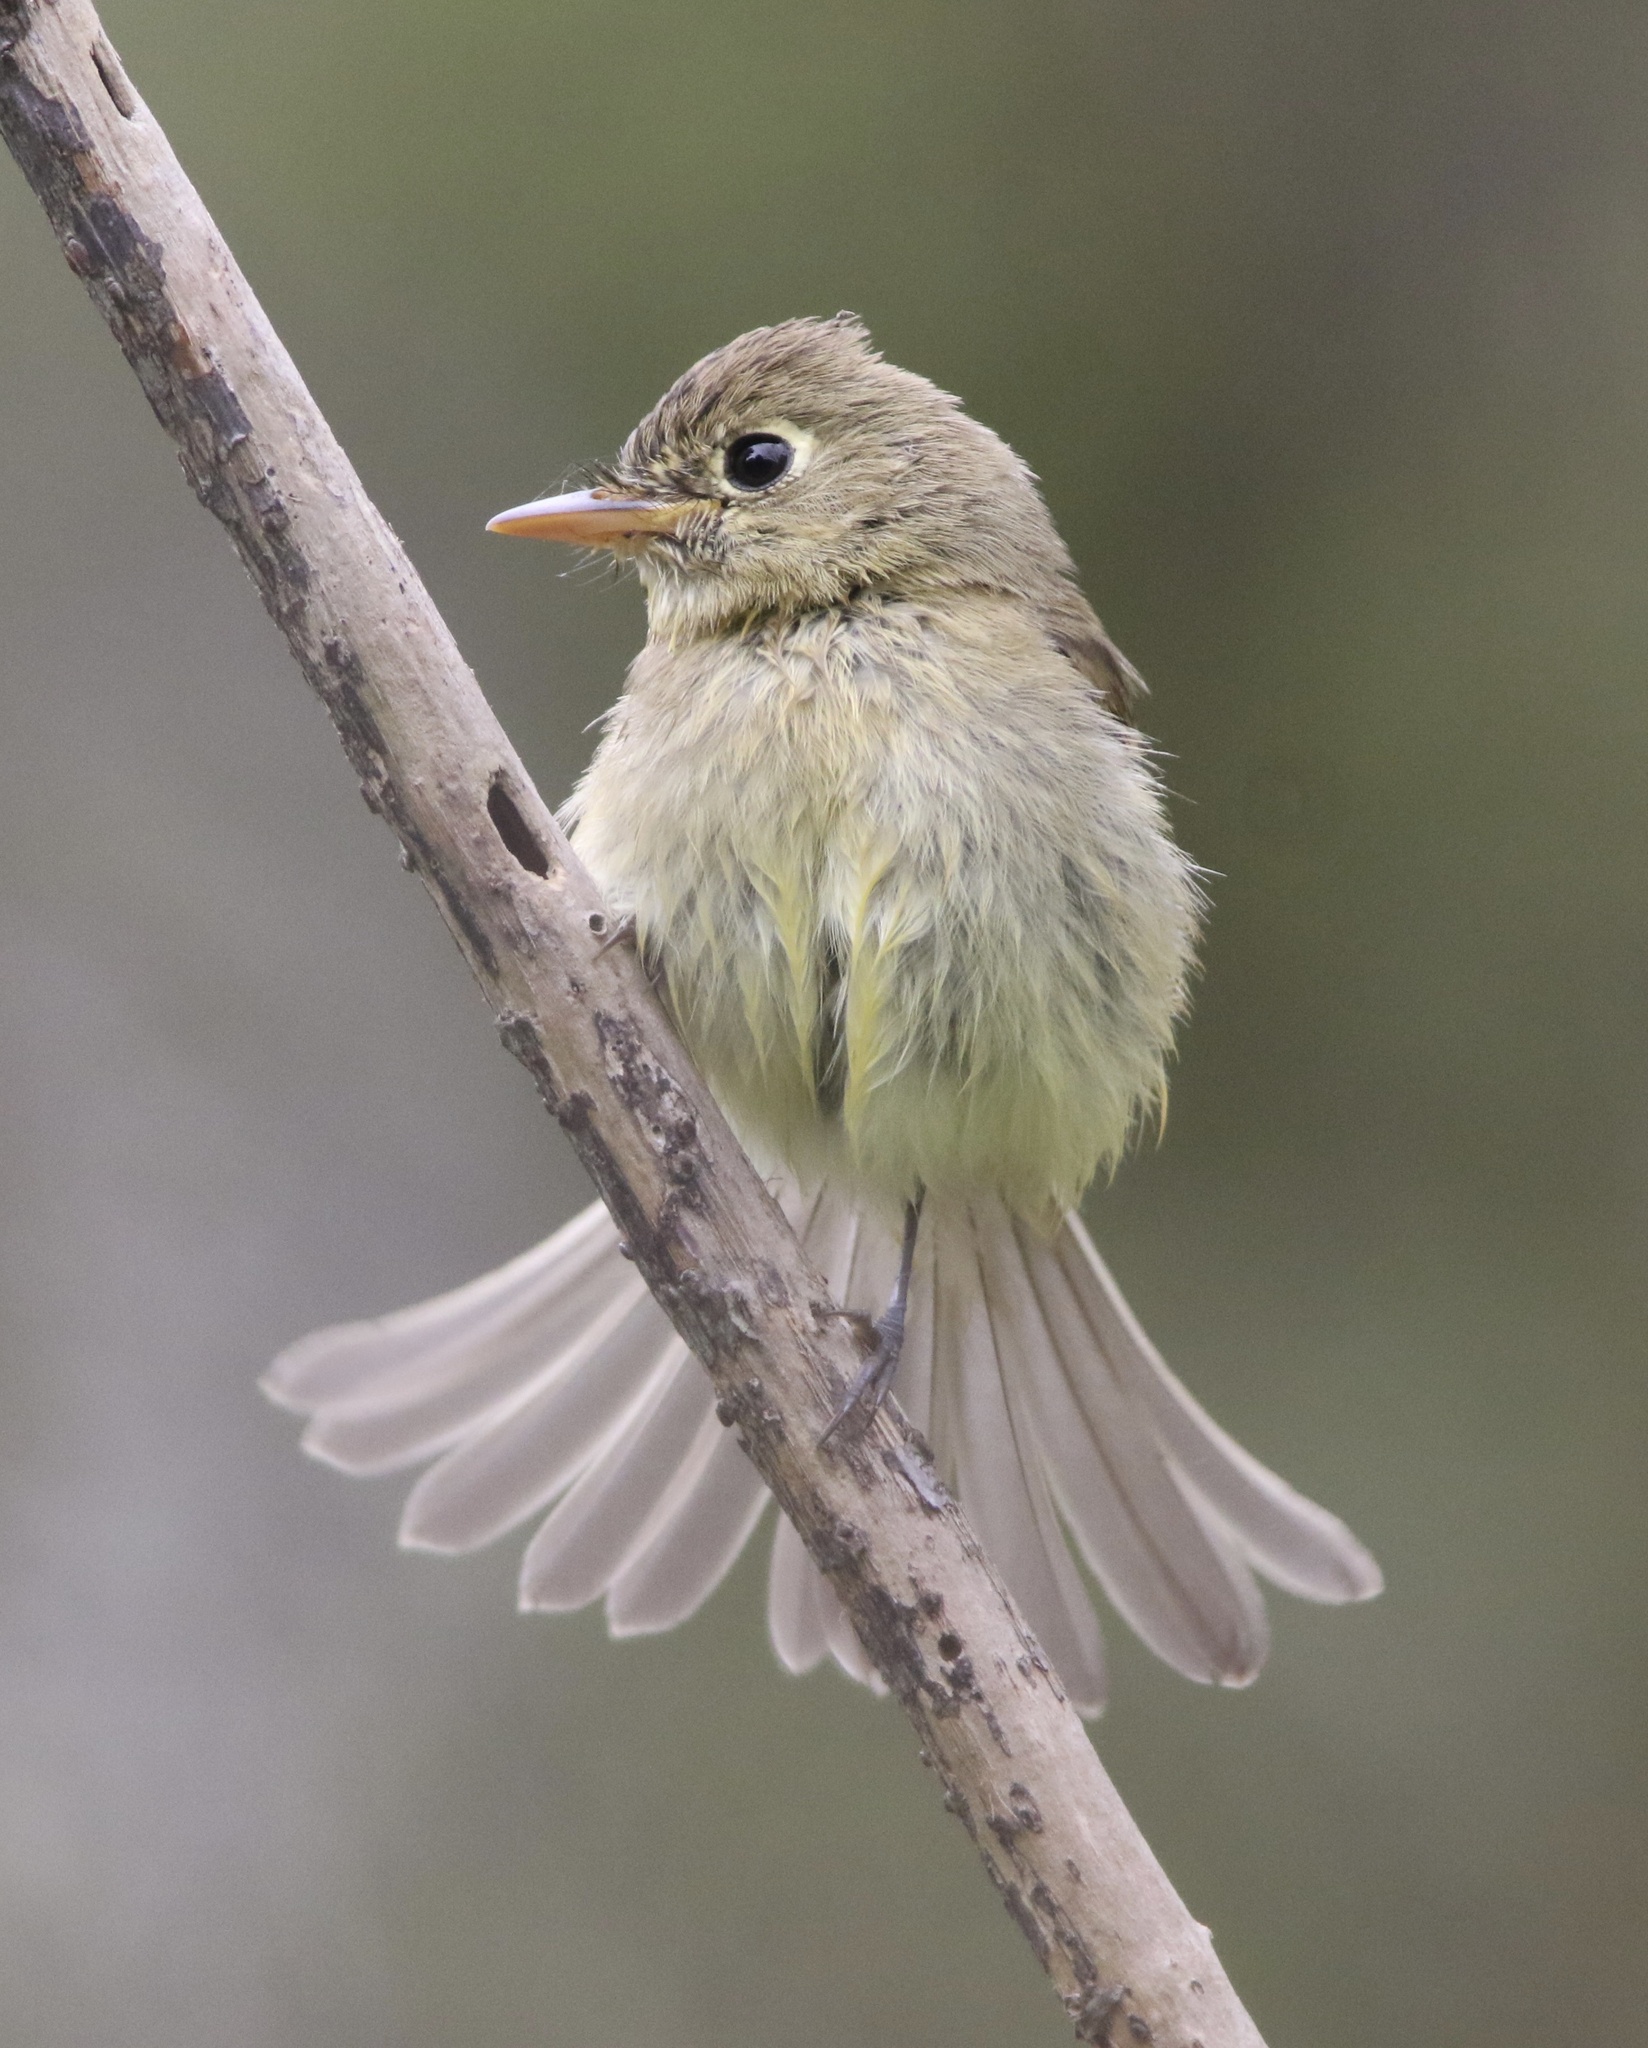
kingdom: Animalia
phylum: Chordata
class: Aves
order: Passeriformes
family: Tyrannidae
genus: Empidonax
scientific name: Empidonax difficilis
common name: Pacific-slope flycatcher
